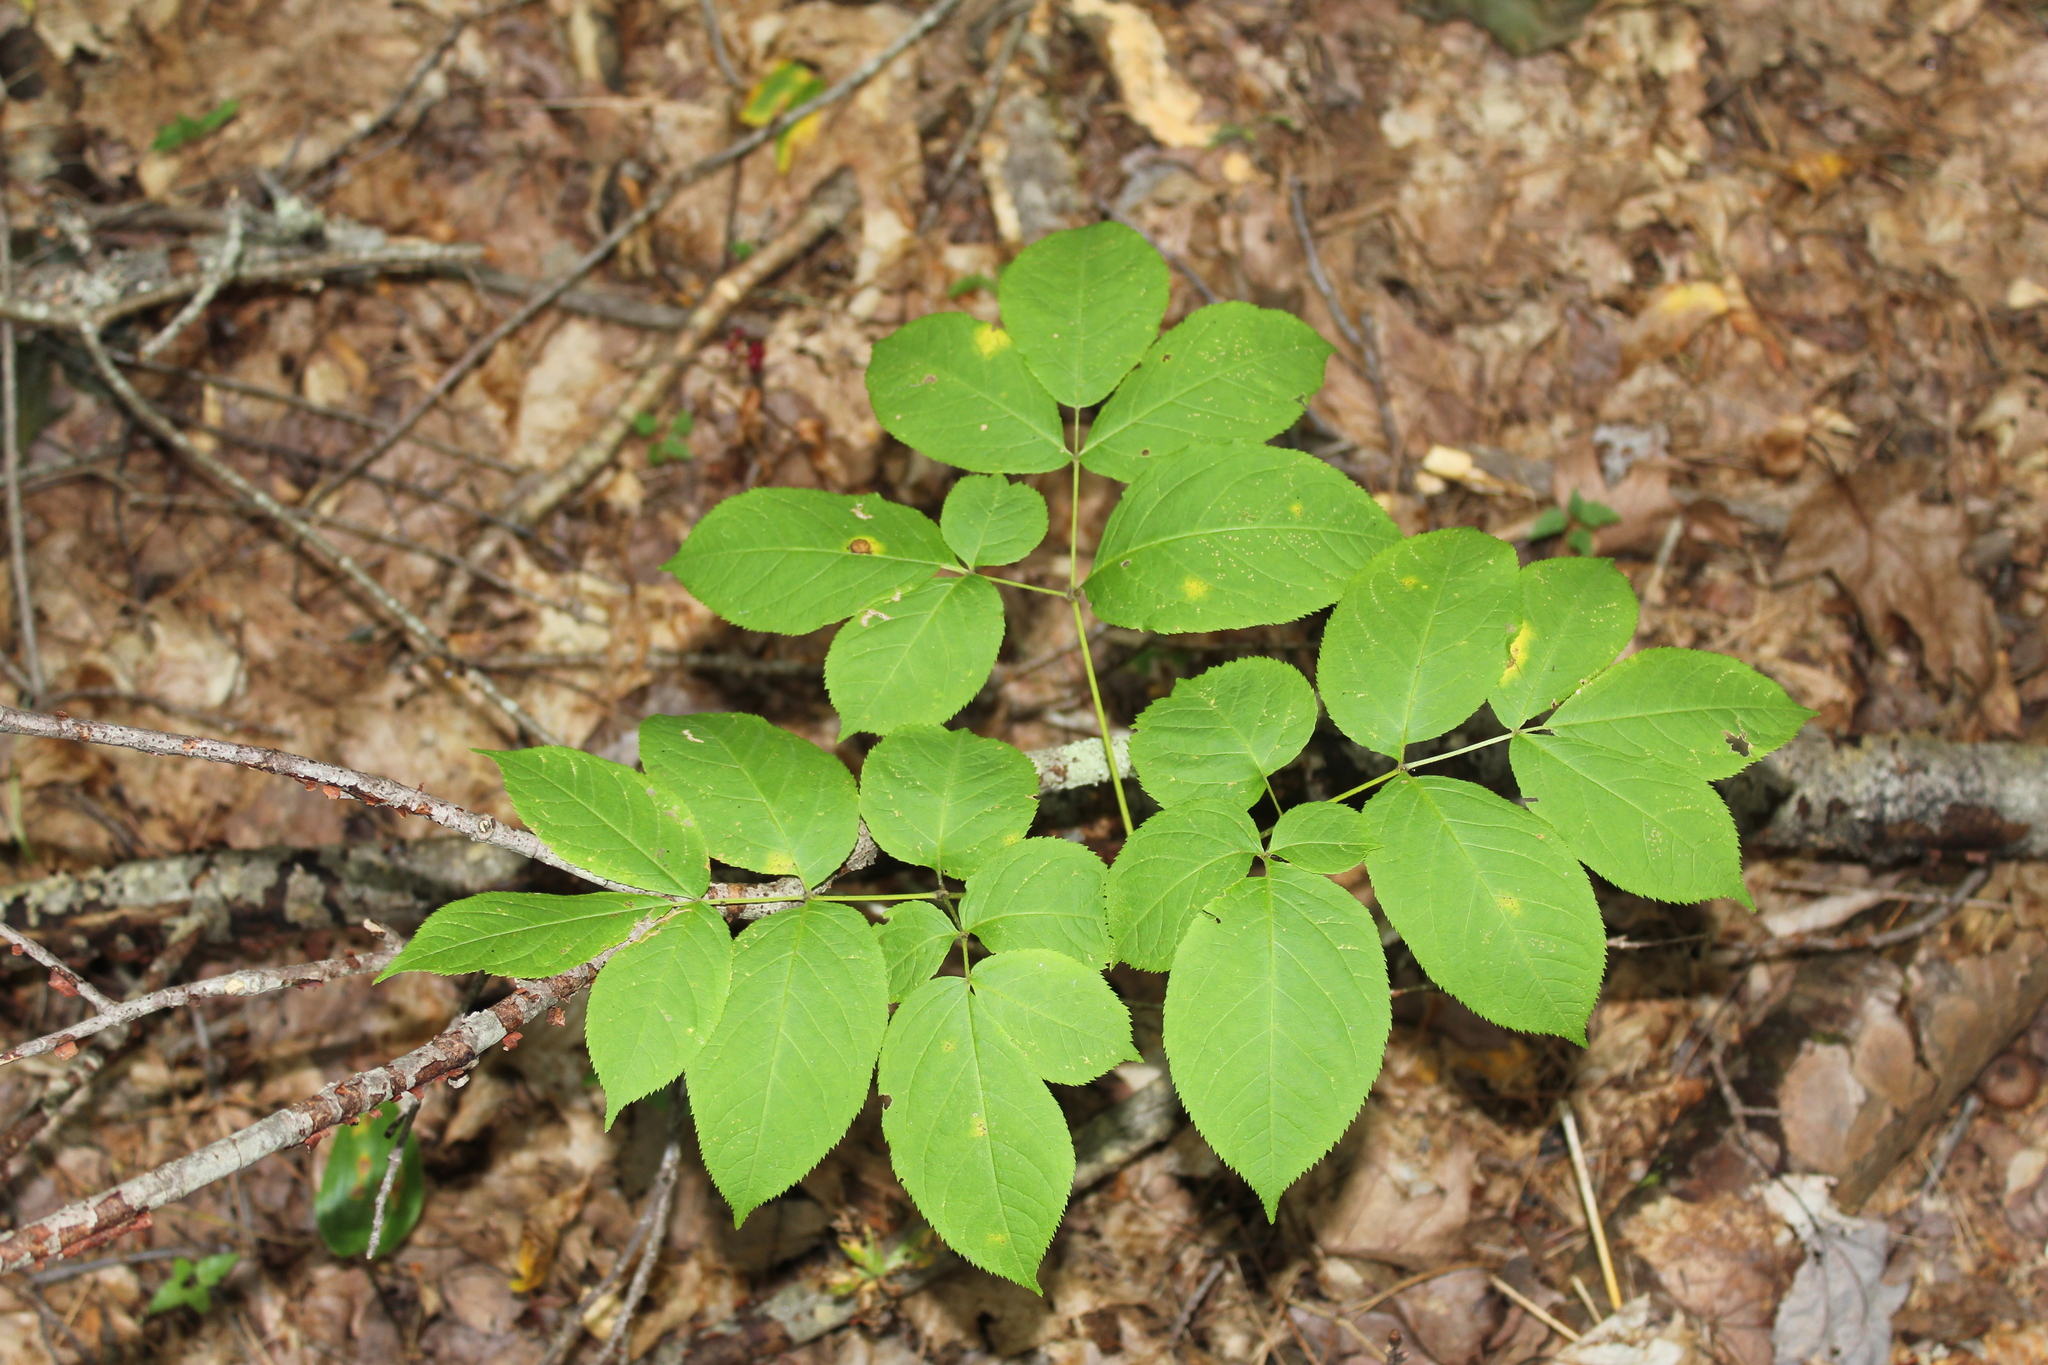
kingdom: Plantae
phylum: Tracheophyta
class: Magnoliopsida
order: Apiales
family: Araliaceae
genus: Aralia
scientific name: Aralia nudicaulis
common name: Wild sarsaparilla
